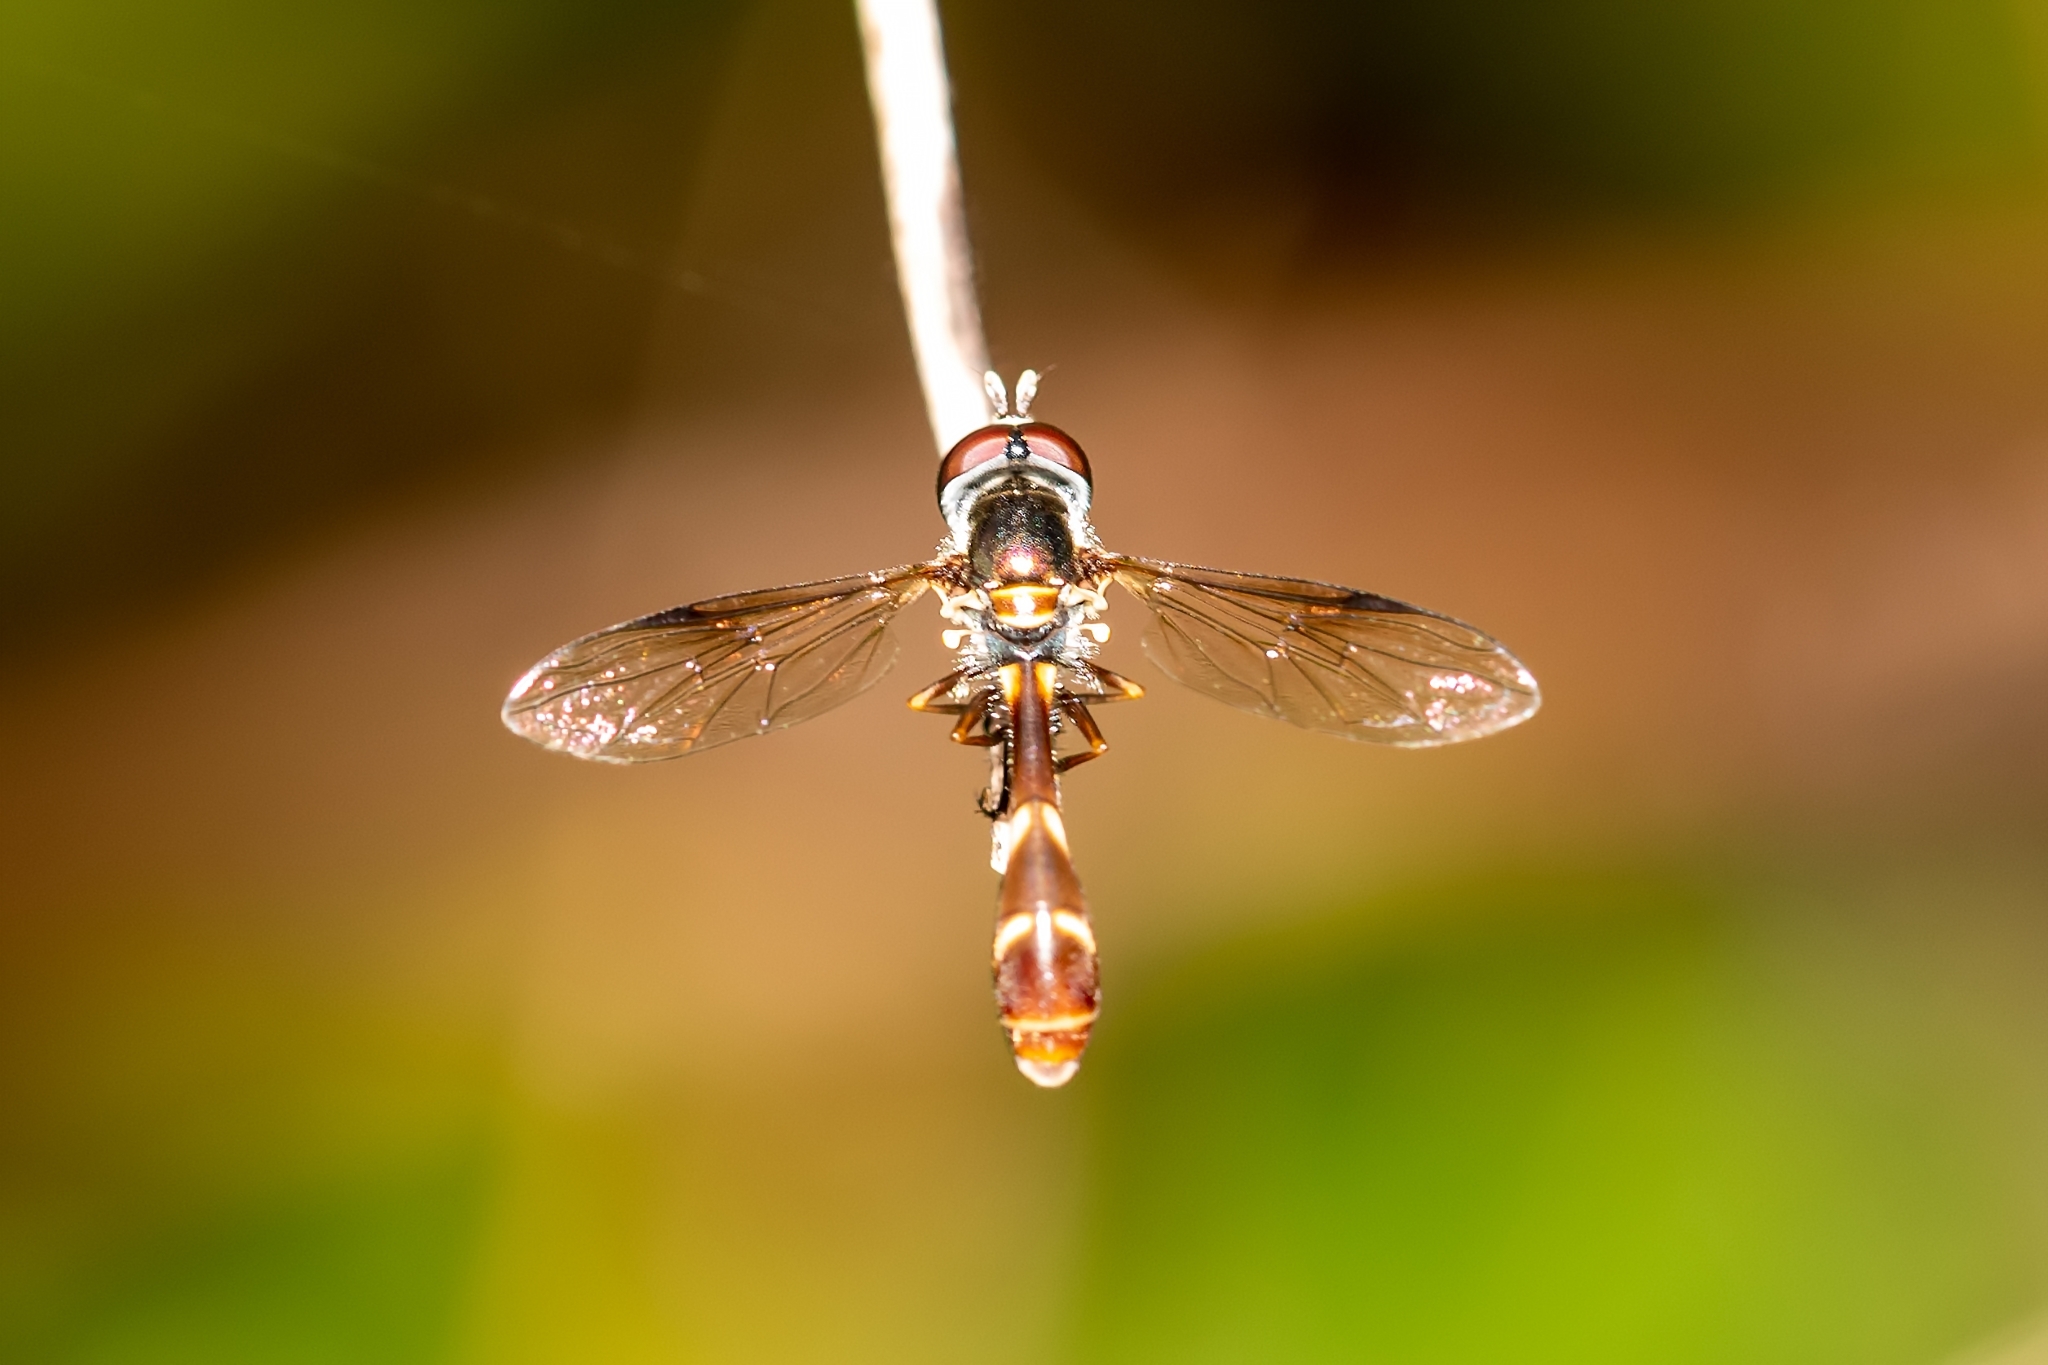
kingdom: Animalia
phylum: Arthropoda
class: Insecta
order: Diptera
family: Syrphidae
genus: Dioprosopa
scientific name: Dioprosopa clavatus
